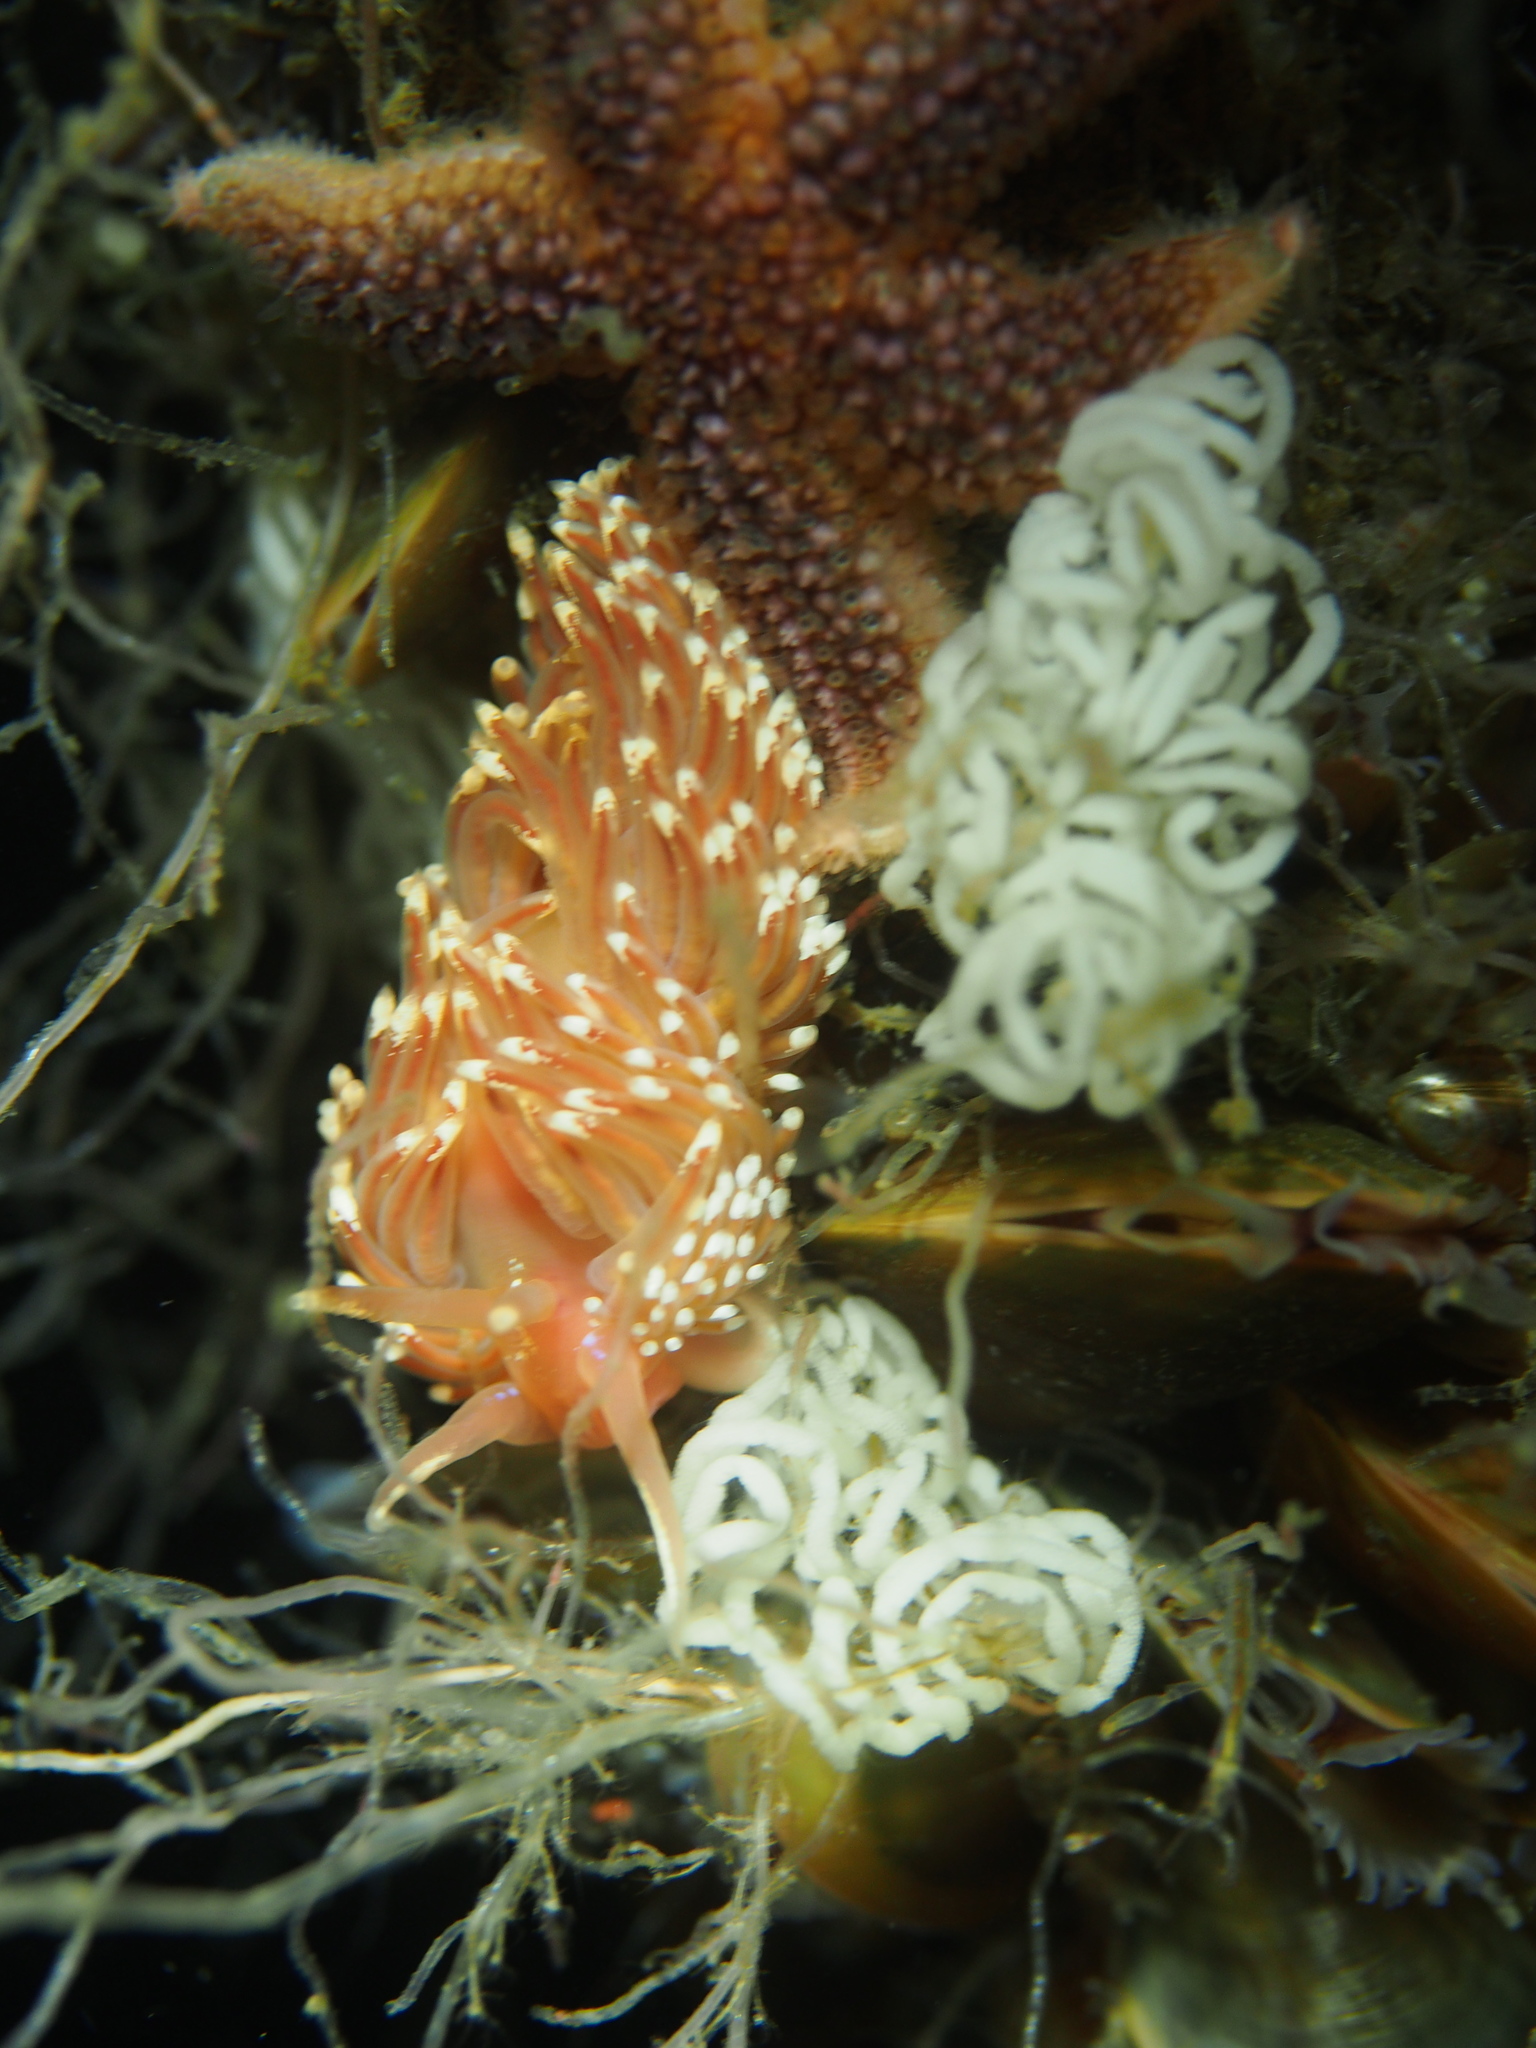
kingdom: Animalia
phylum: Mollusca
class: Gastropoda
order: Nudibranchia
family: Facelinidae
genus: Facelina
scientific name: Facelina bostoniensis
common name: Boston facelina
